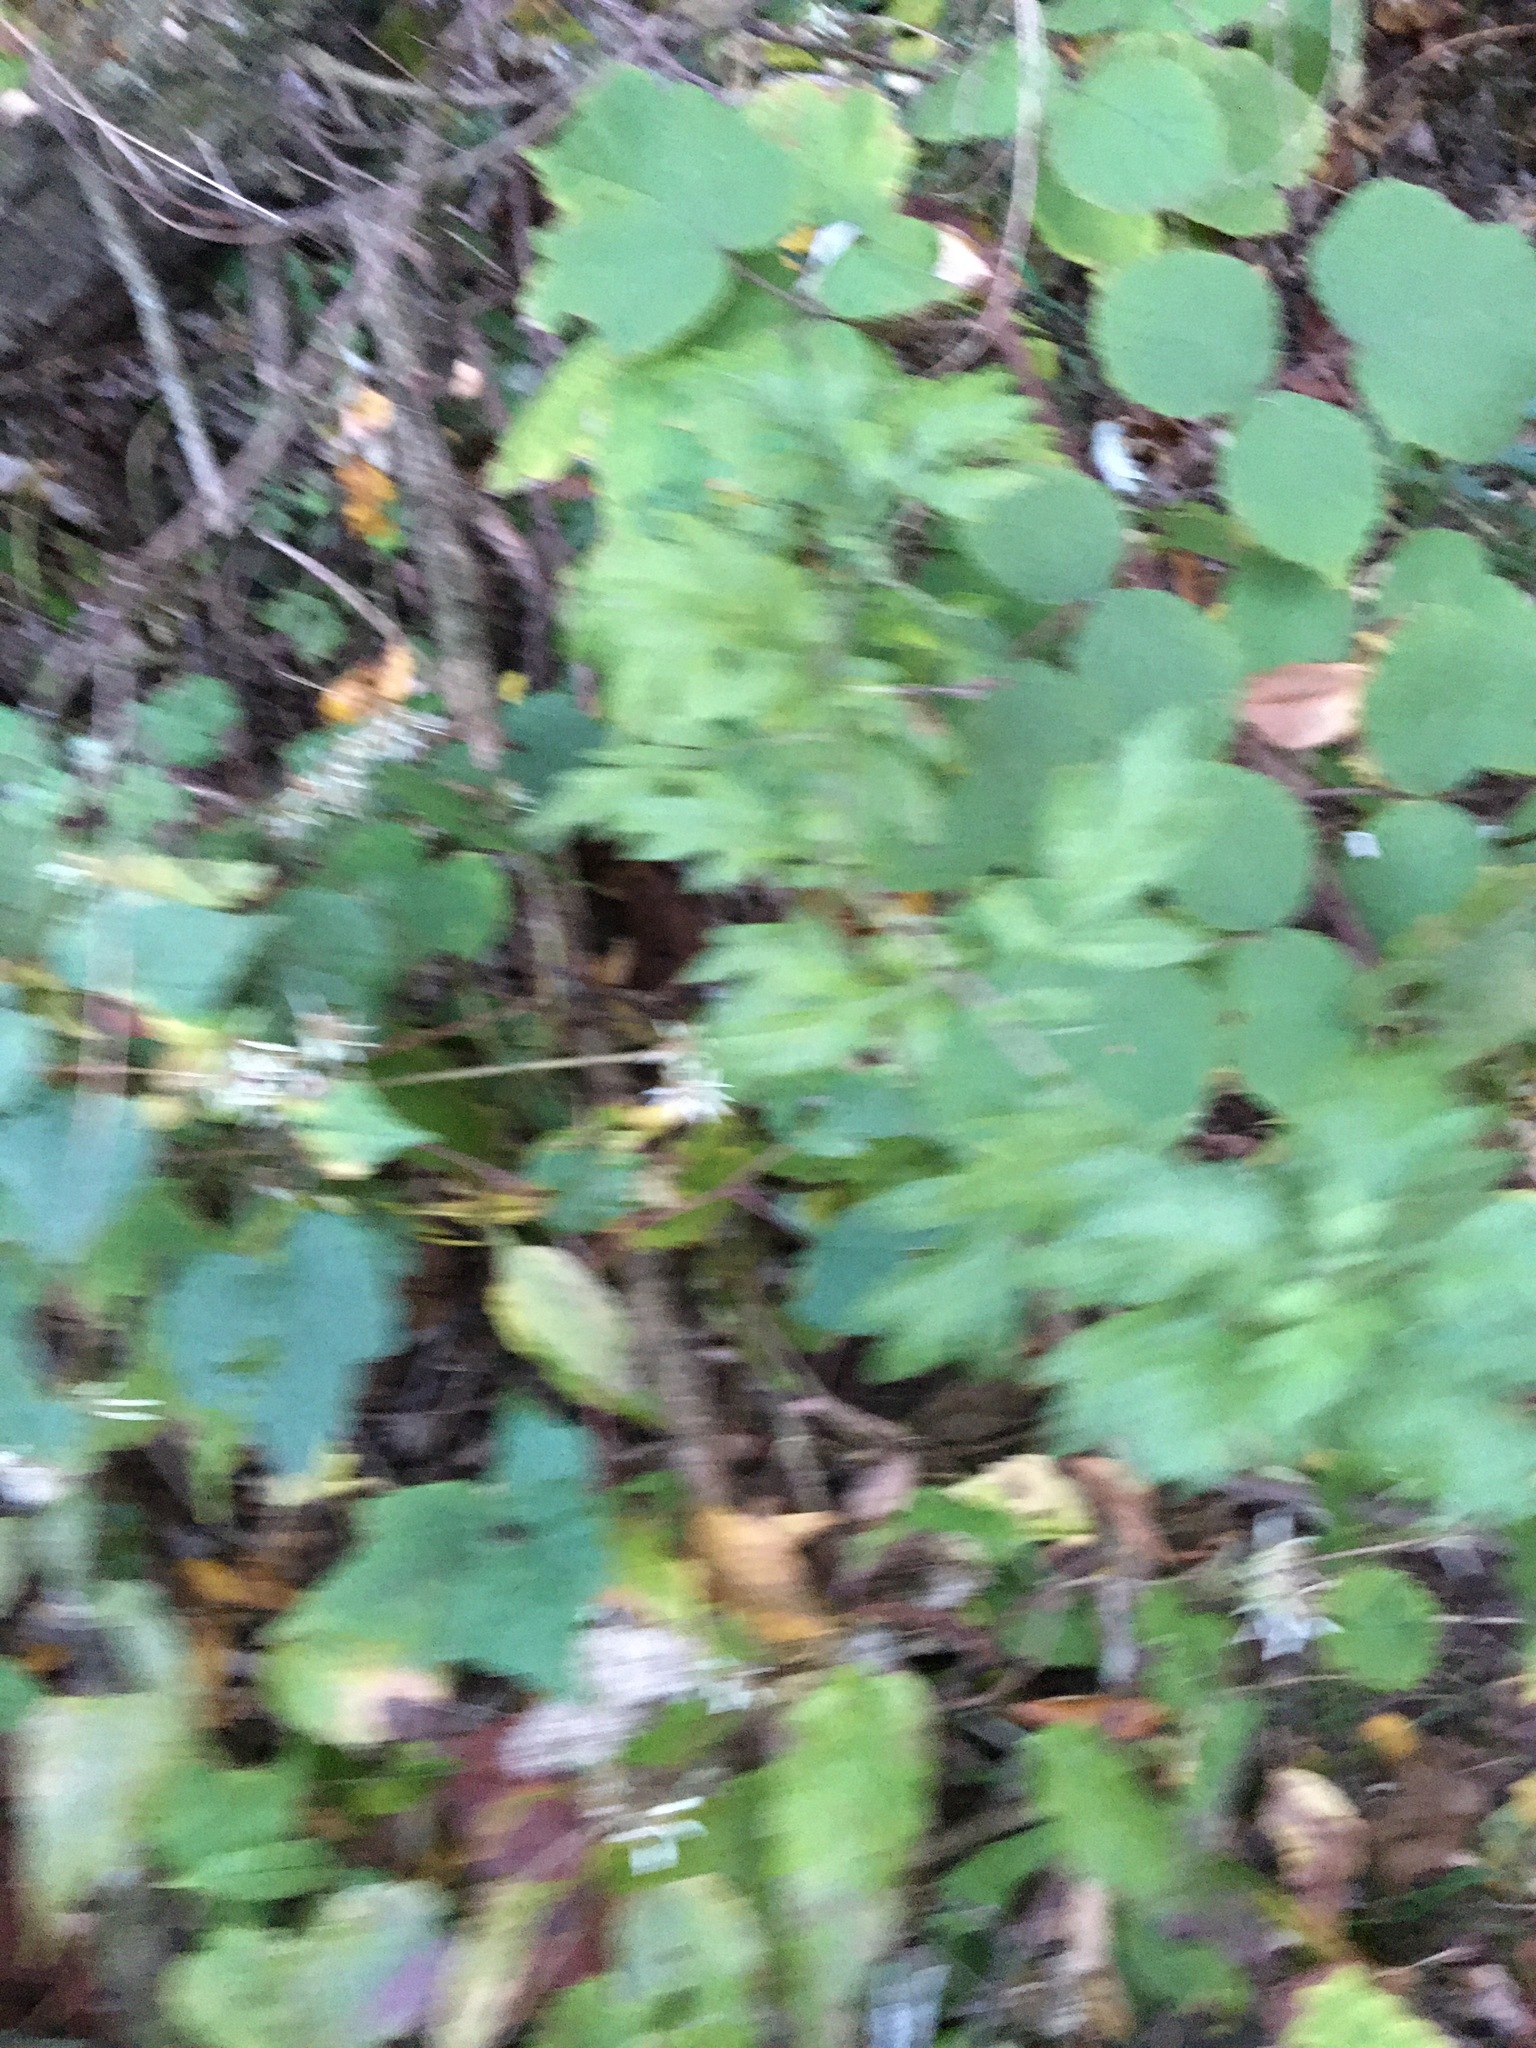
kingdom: Plantae
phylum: Tracheophyta
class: Magnoliopsida
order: Asterales
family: Asteraceae
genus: Artemisia
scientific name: Artemisia vulgaris
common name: Mugwort
